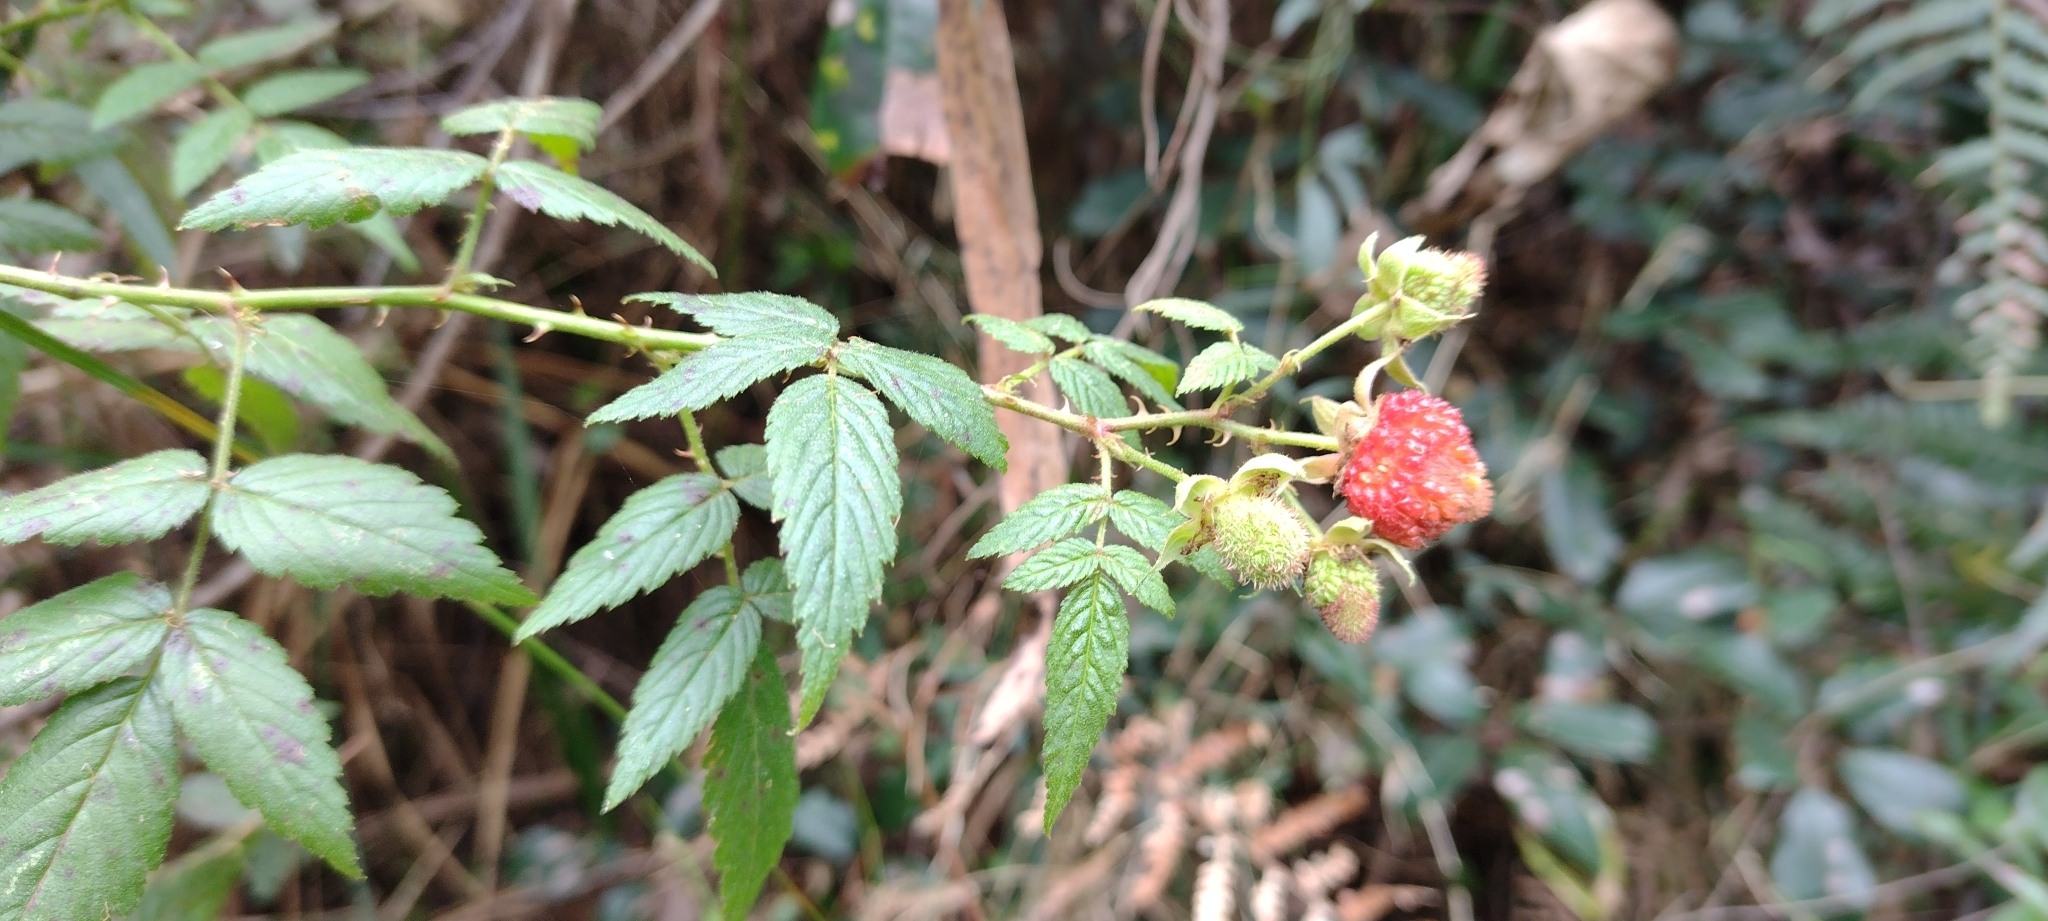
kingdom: Plantae
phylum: Tracheophyta
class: Magnoliopsida
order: Rosales
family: Rosaceae
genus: Rubus
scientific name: Rubus rosifolius
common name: Roseleaf raspberry
